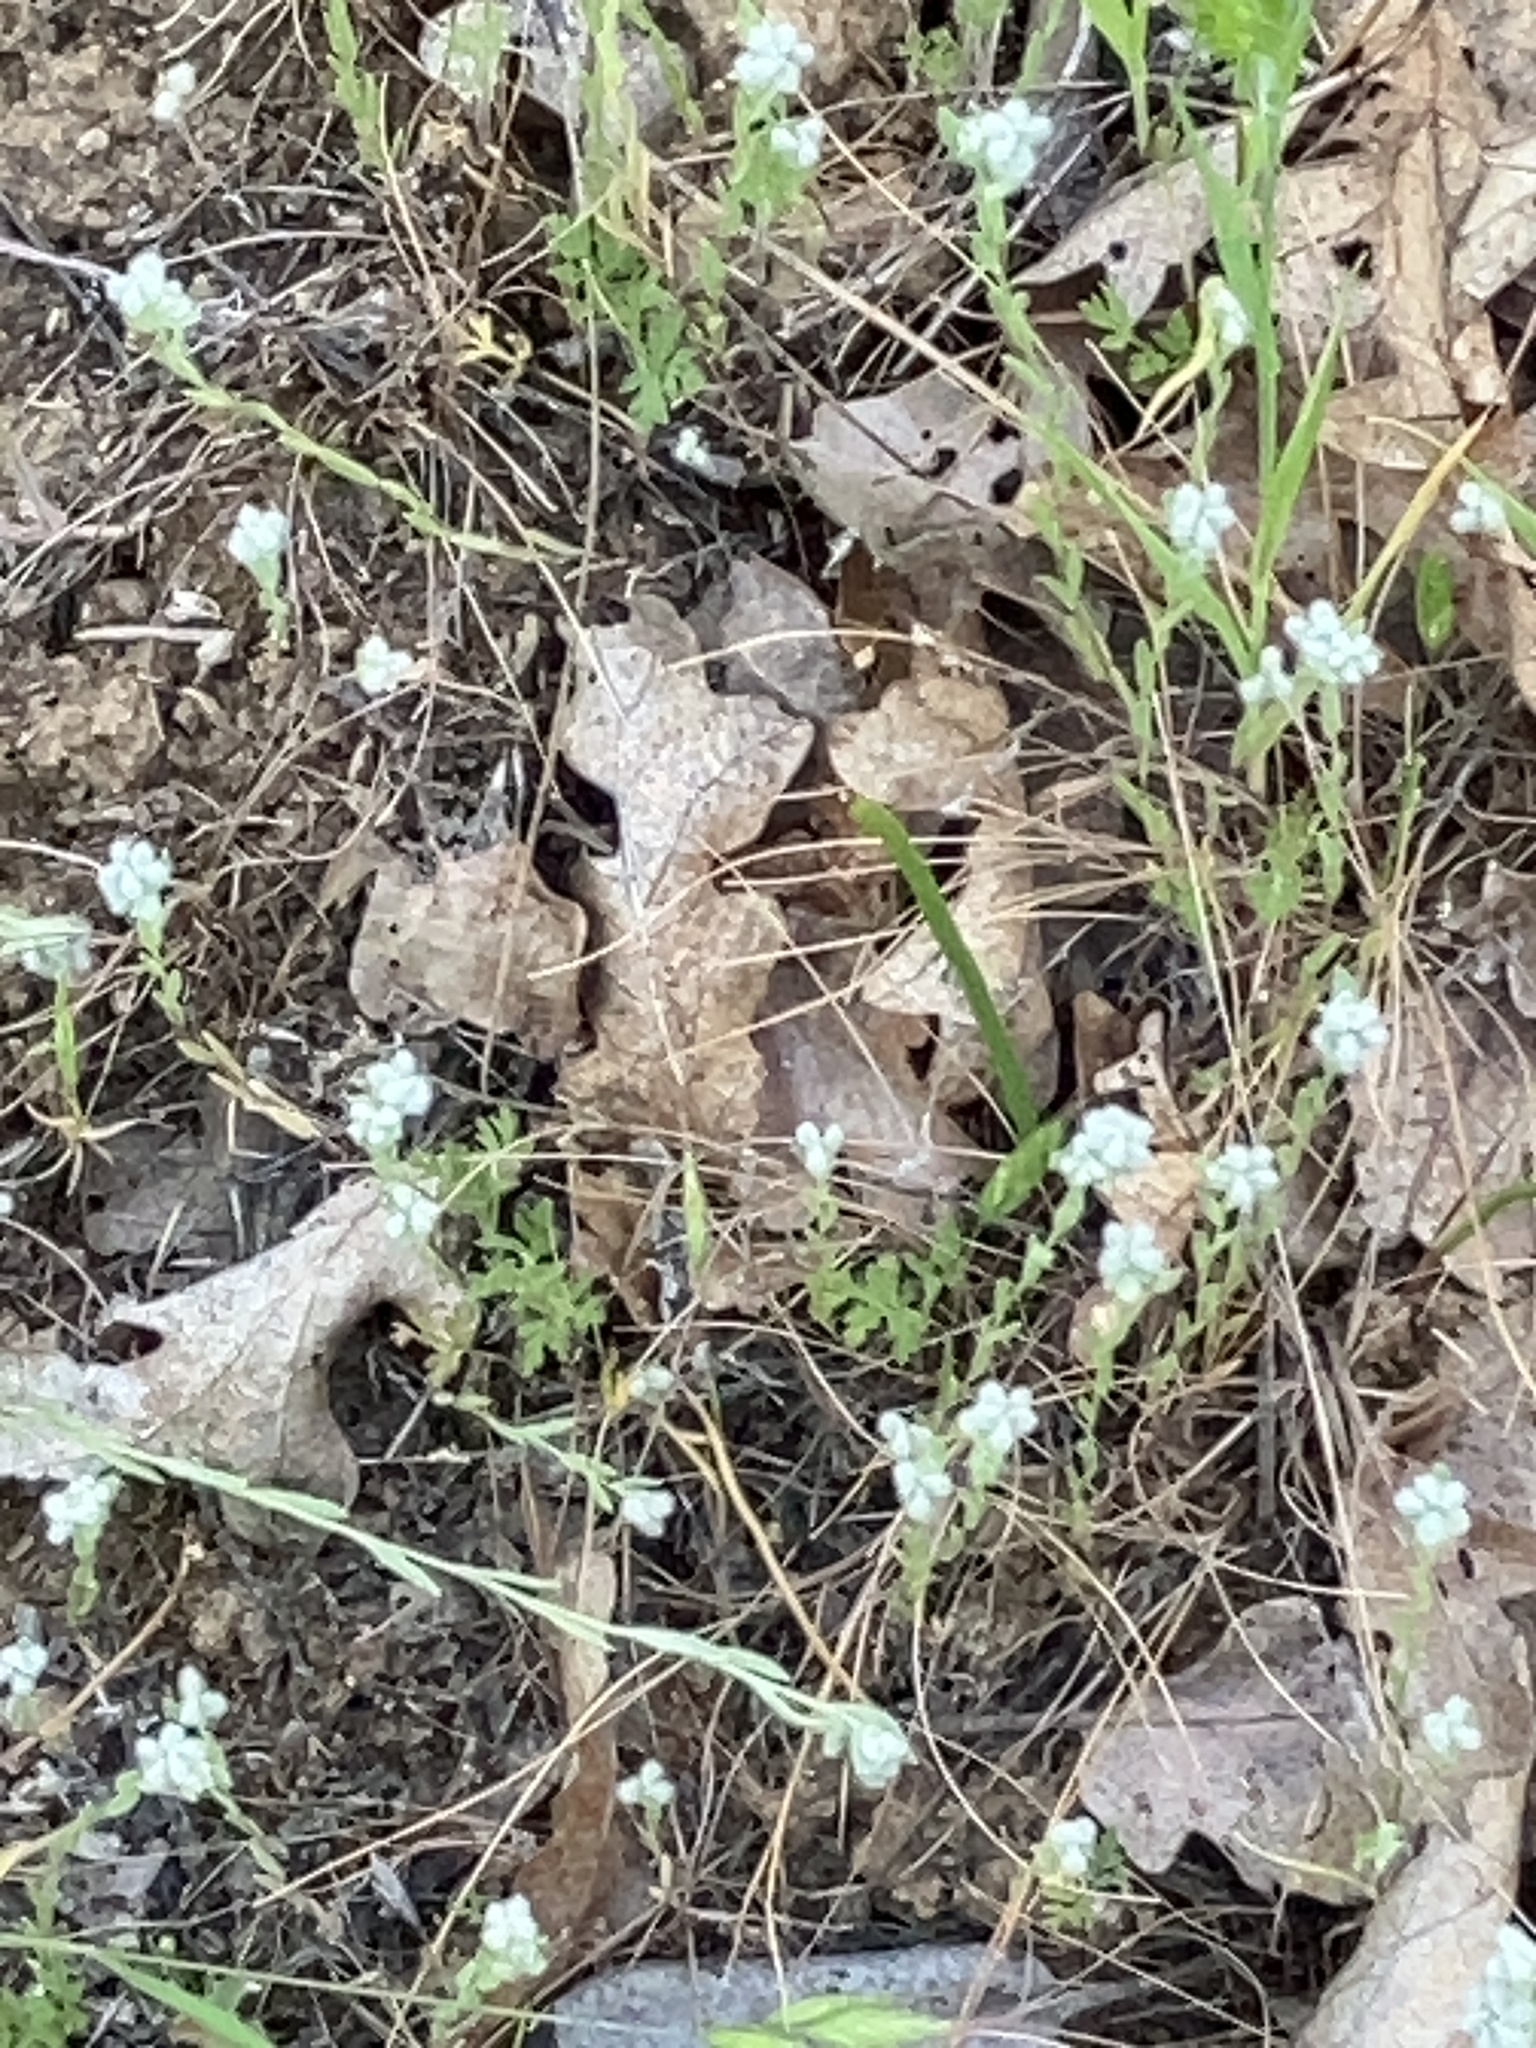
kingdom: Plantae
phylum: Tracheophyta
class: Magnoliopsida
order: Asterales
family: Asteraceae
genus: Bombycilaena
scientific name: Bombycilaena californica
